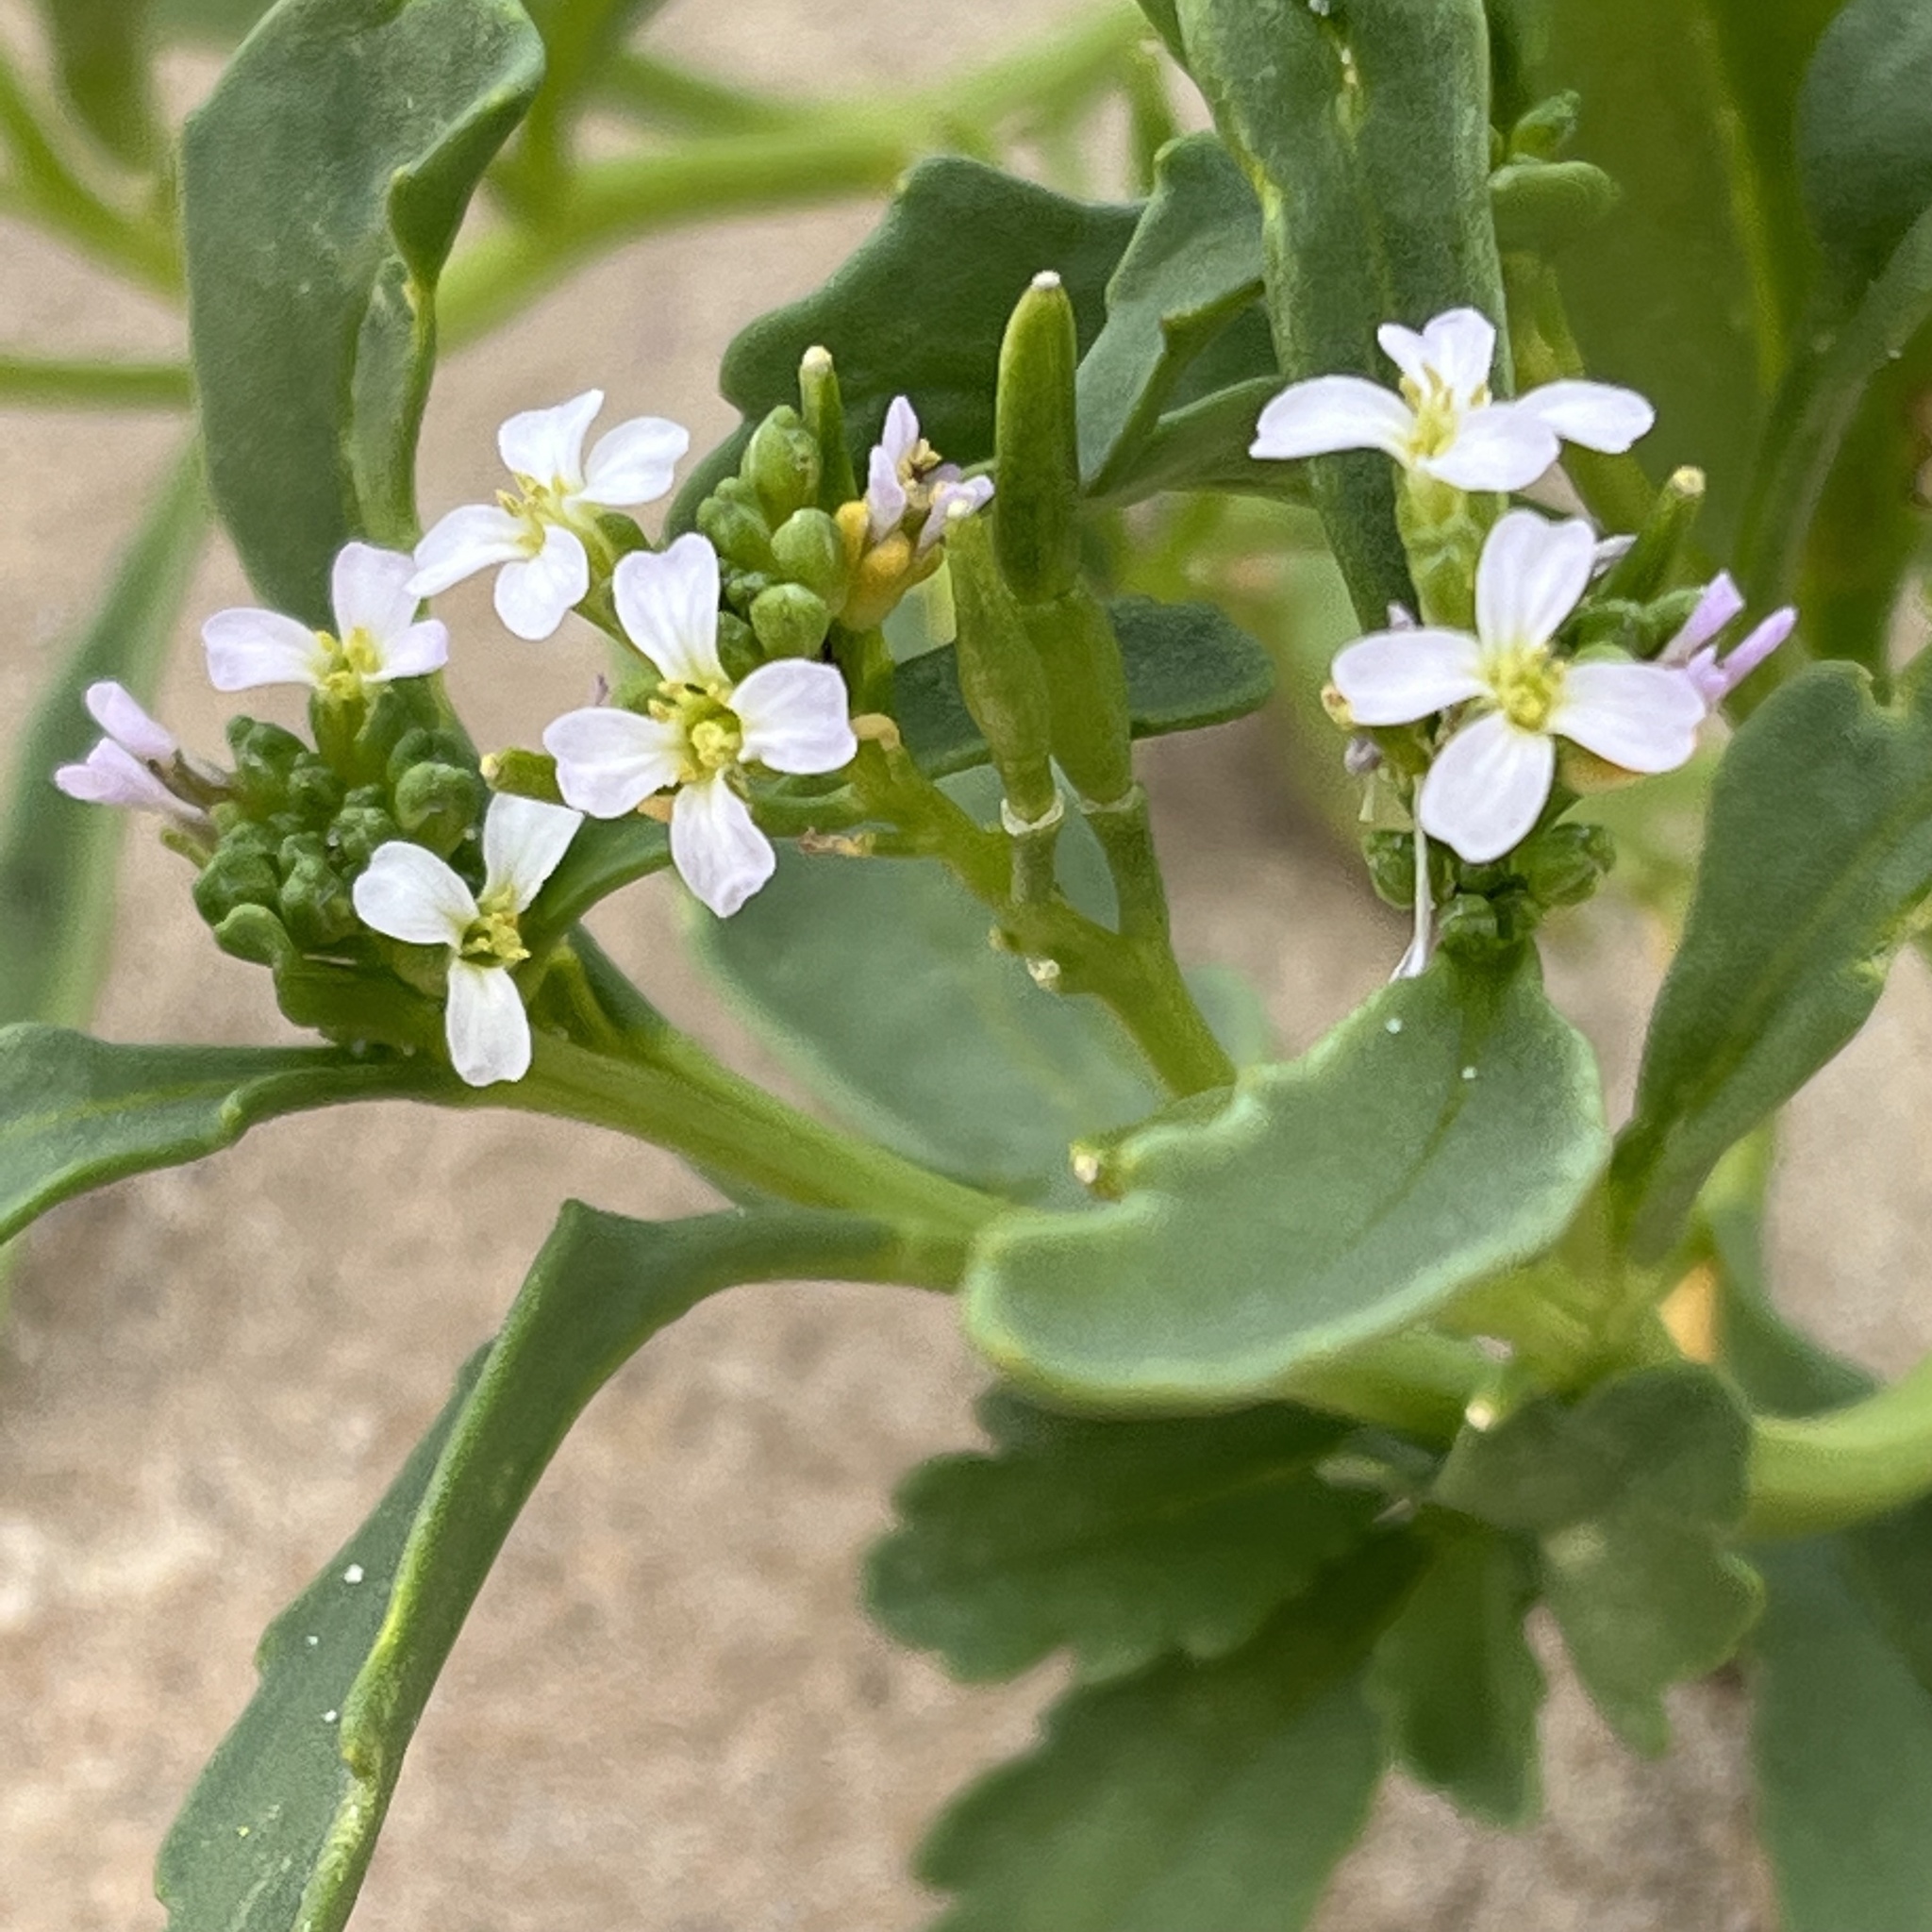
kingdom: Plantae
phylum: Tracheophyta
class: Magnoliopsida
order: Brassicales
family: Brassicaceae
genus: Cakile
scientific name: Cakile edentula
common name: American sea rocket
